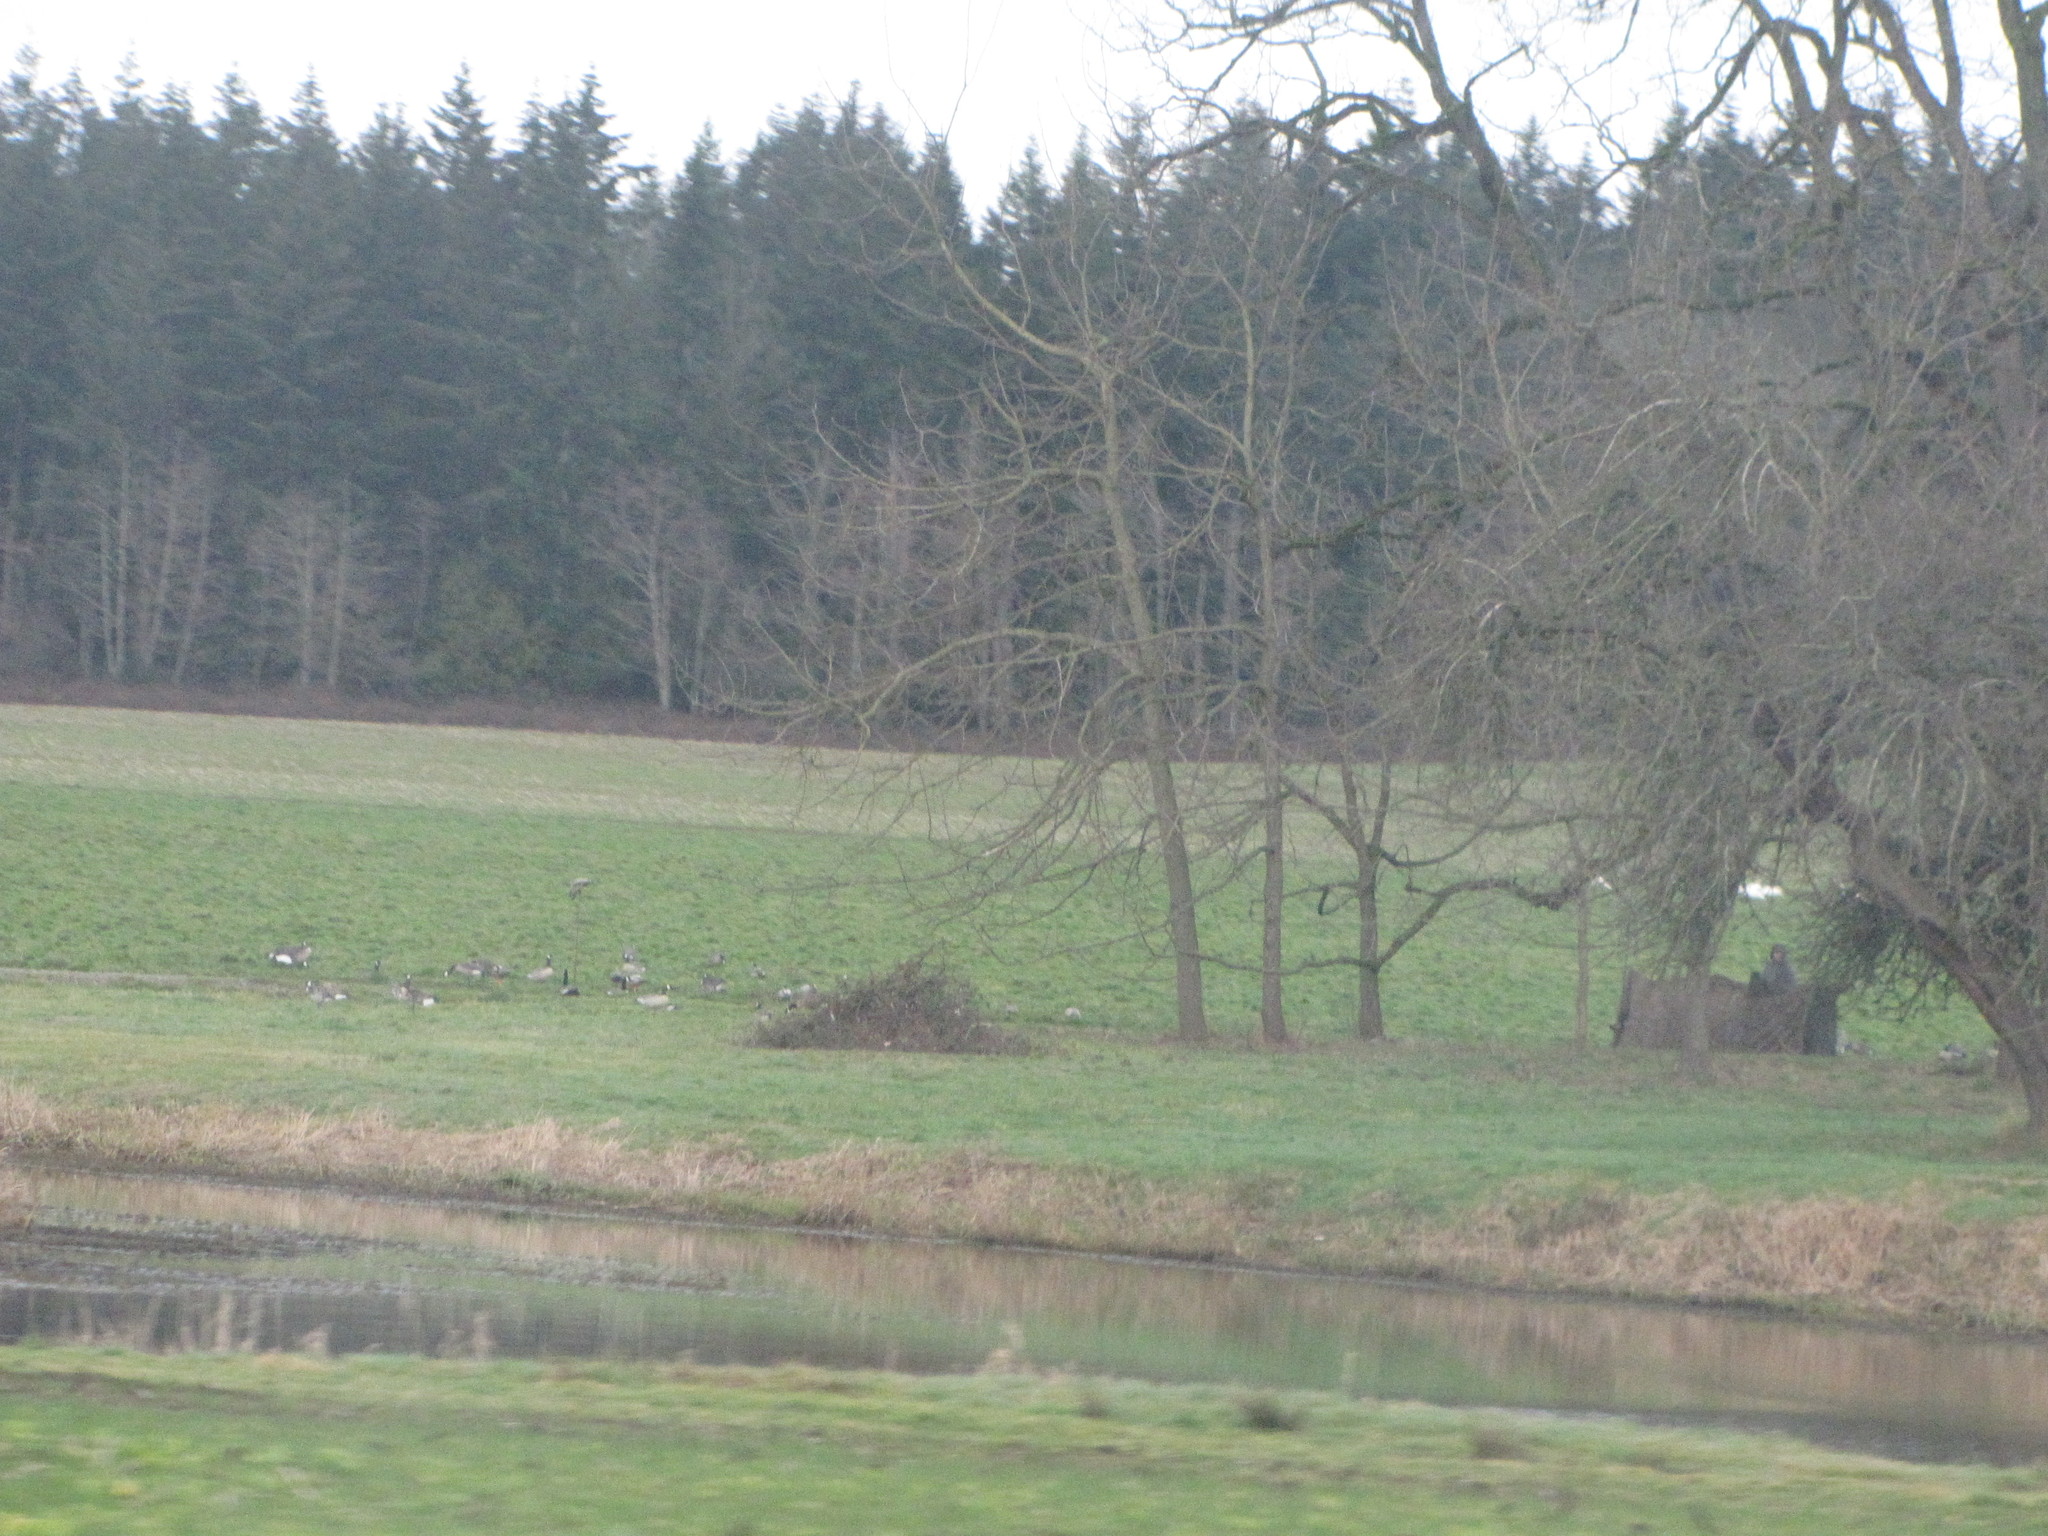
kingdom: Animalia
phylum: Chordata
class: Aves
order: Anseriformes
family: Anatidae
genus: Branta
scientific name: Branta canadensis
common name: Canada goose
